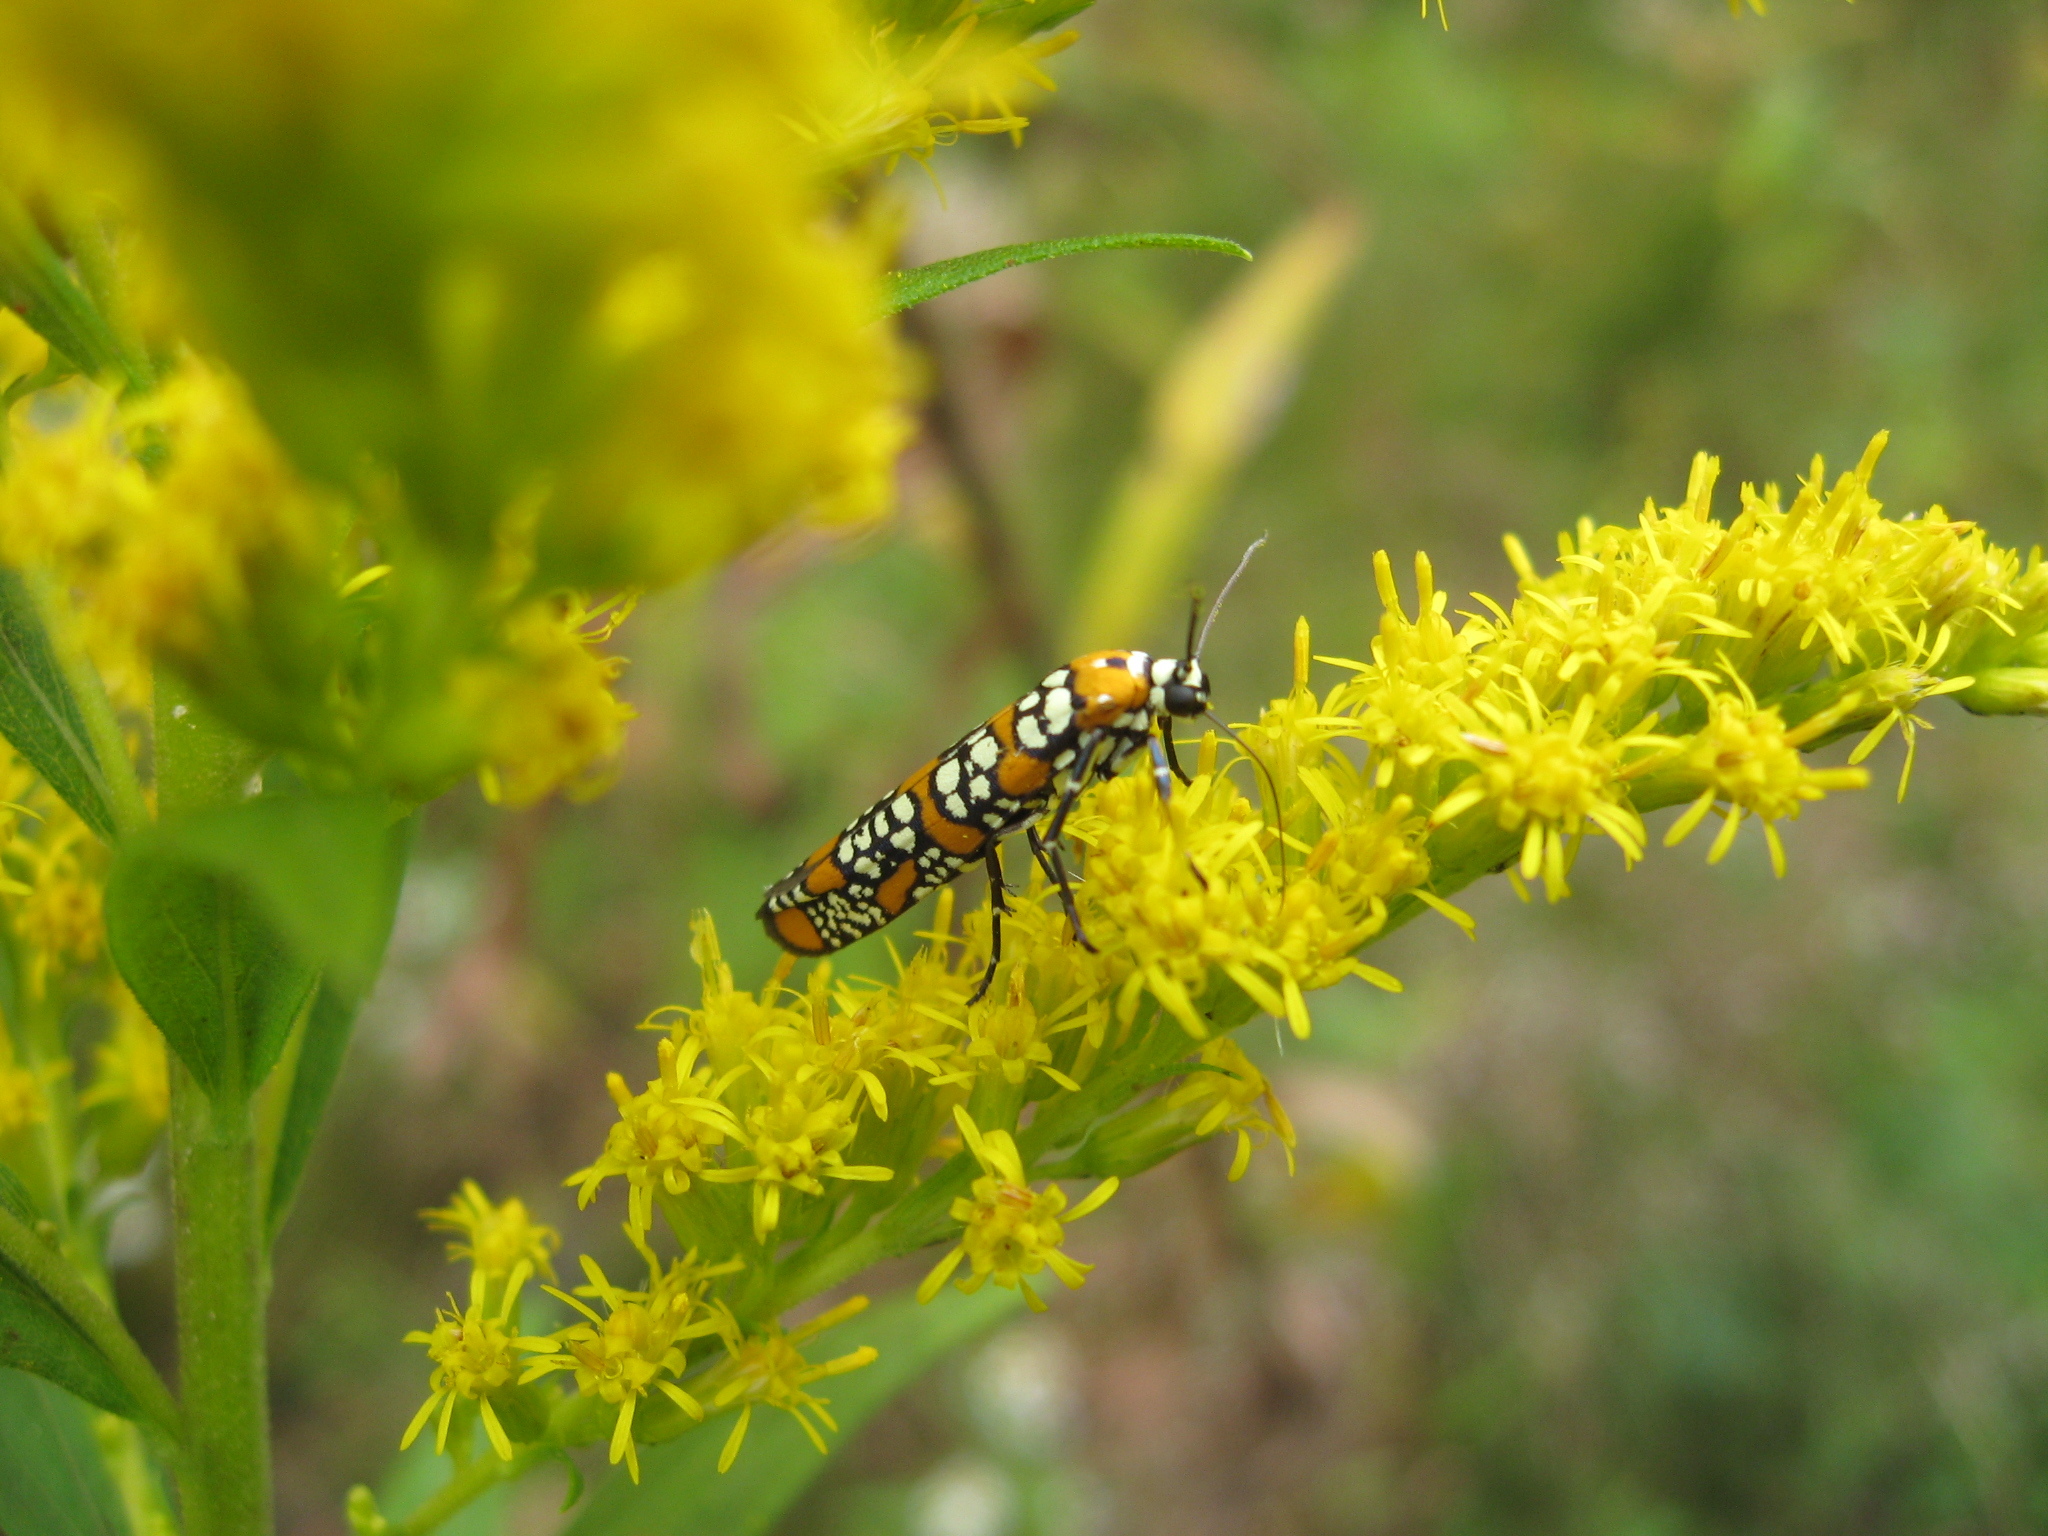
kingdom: Animalia
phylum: Arthropoda
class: Insecta
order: Lepidoptera
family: Attevidae
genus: Atteva
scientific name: Atteva punctella
